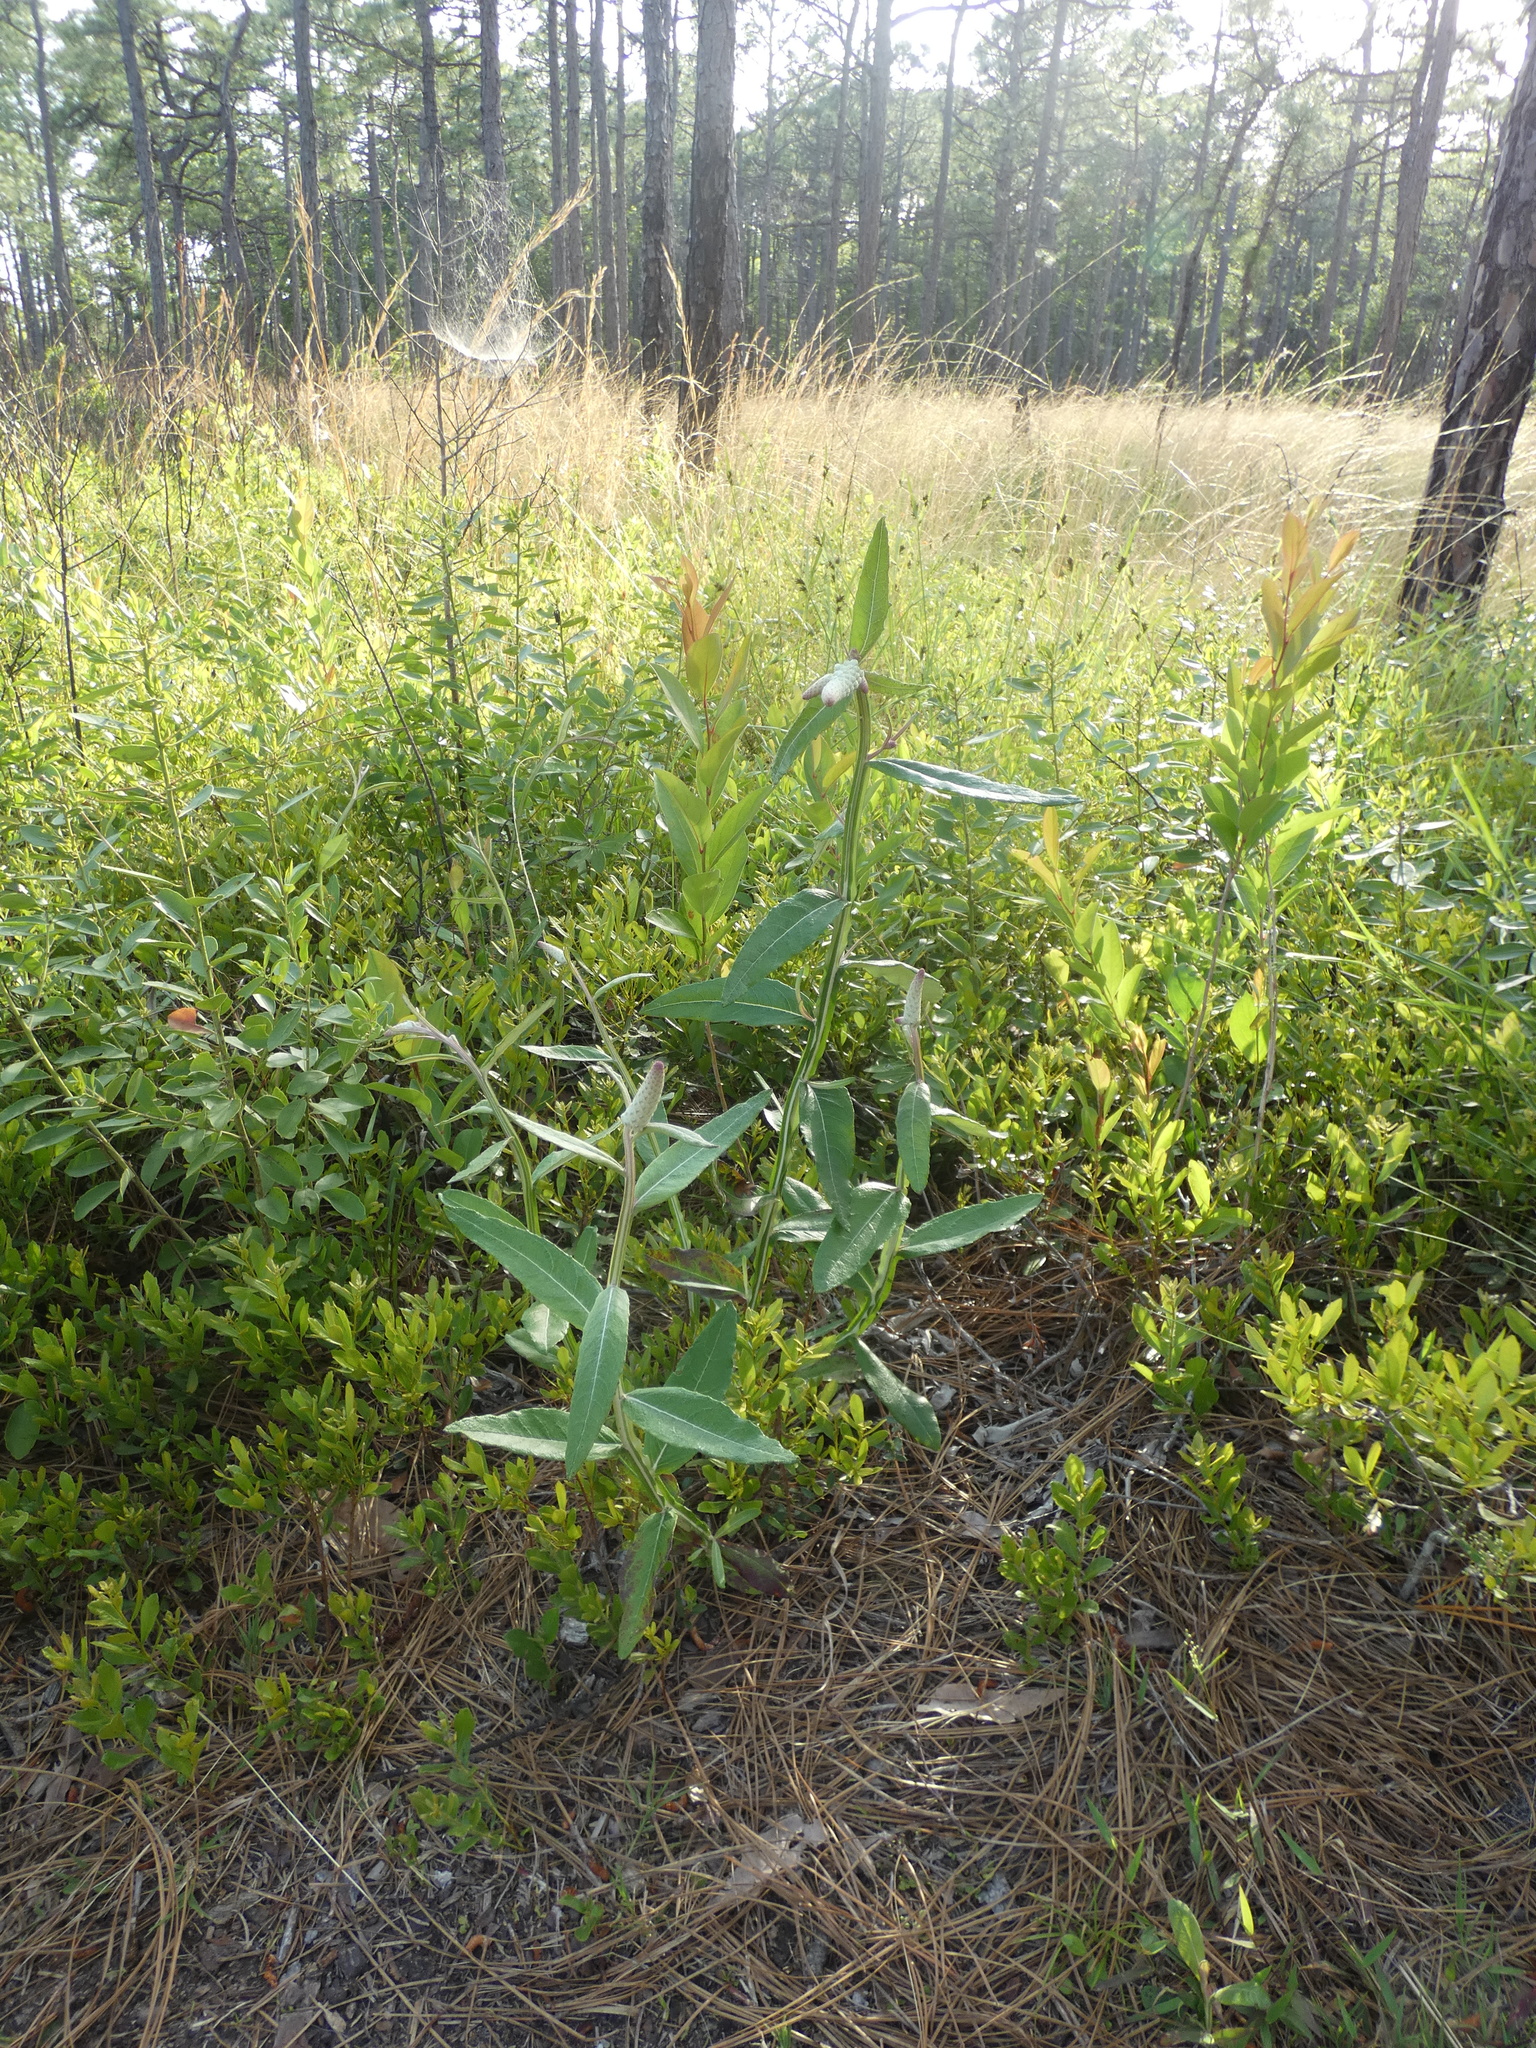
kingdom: Plantae
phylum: Tracheophyta
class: Magnoliopsida
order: Asterales
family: Asteraceae
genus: Pterocaulon
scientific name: Pterocaulon pycnostachyum
